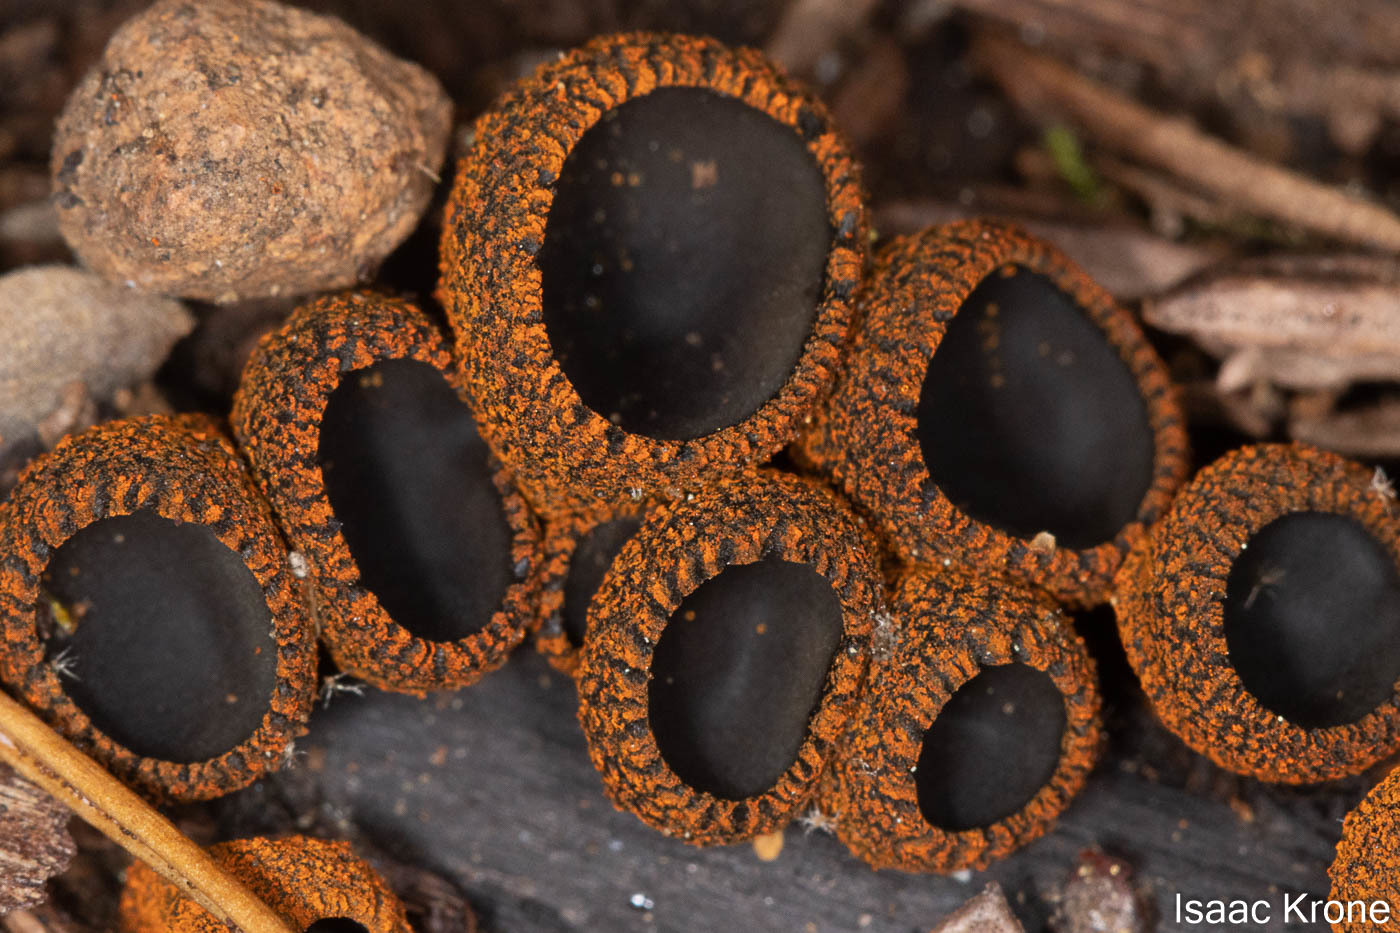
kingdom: Fungi
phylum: Ascomycota
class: Pezizomycetes
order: Pezizales
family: Sarcosomataceae
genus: Plectania
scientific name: Plectania melastoma
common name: Corona cup
